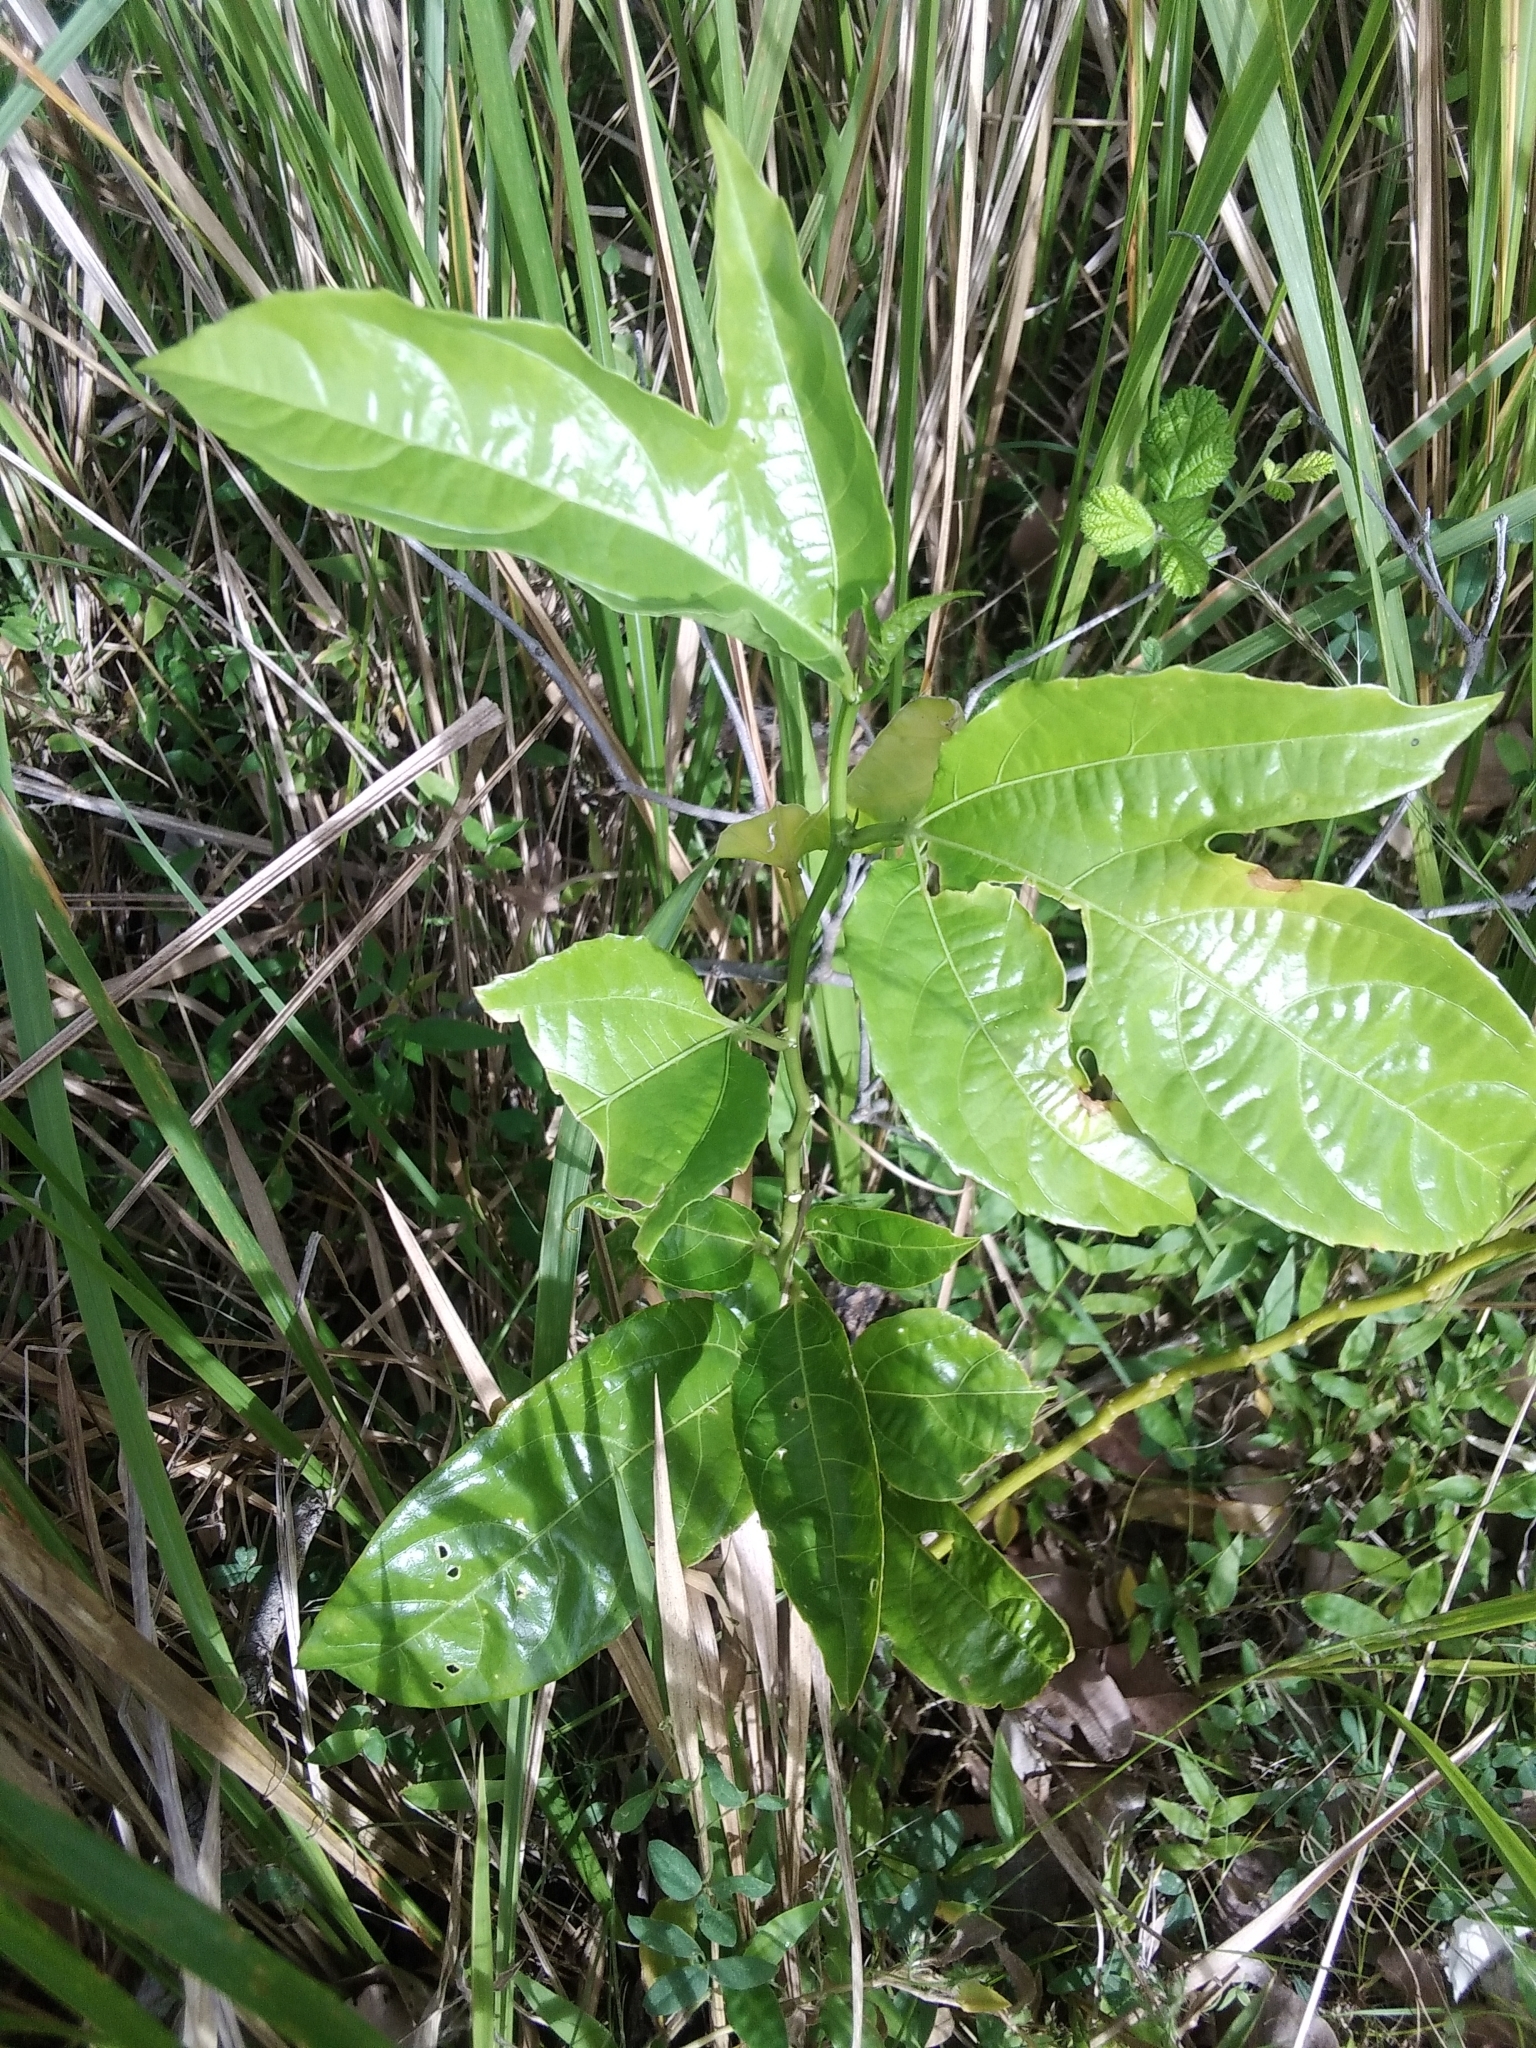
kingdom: Plantae
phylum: Tracheophyta
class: Magnoliopsida
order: Malpighiales
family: Passifloraceae
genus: Passiflora
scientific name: Passiflora edulis
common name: Purple granadilla
